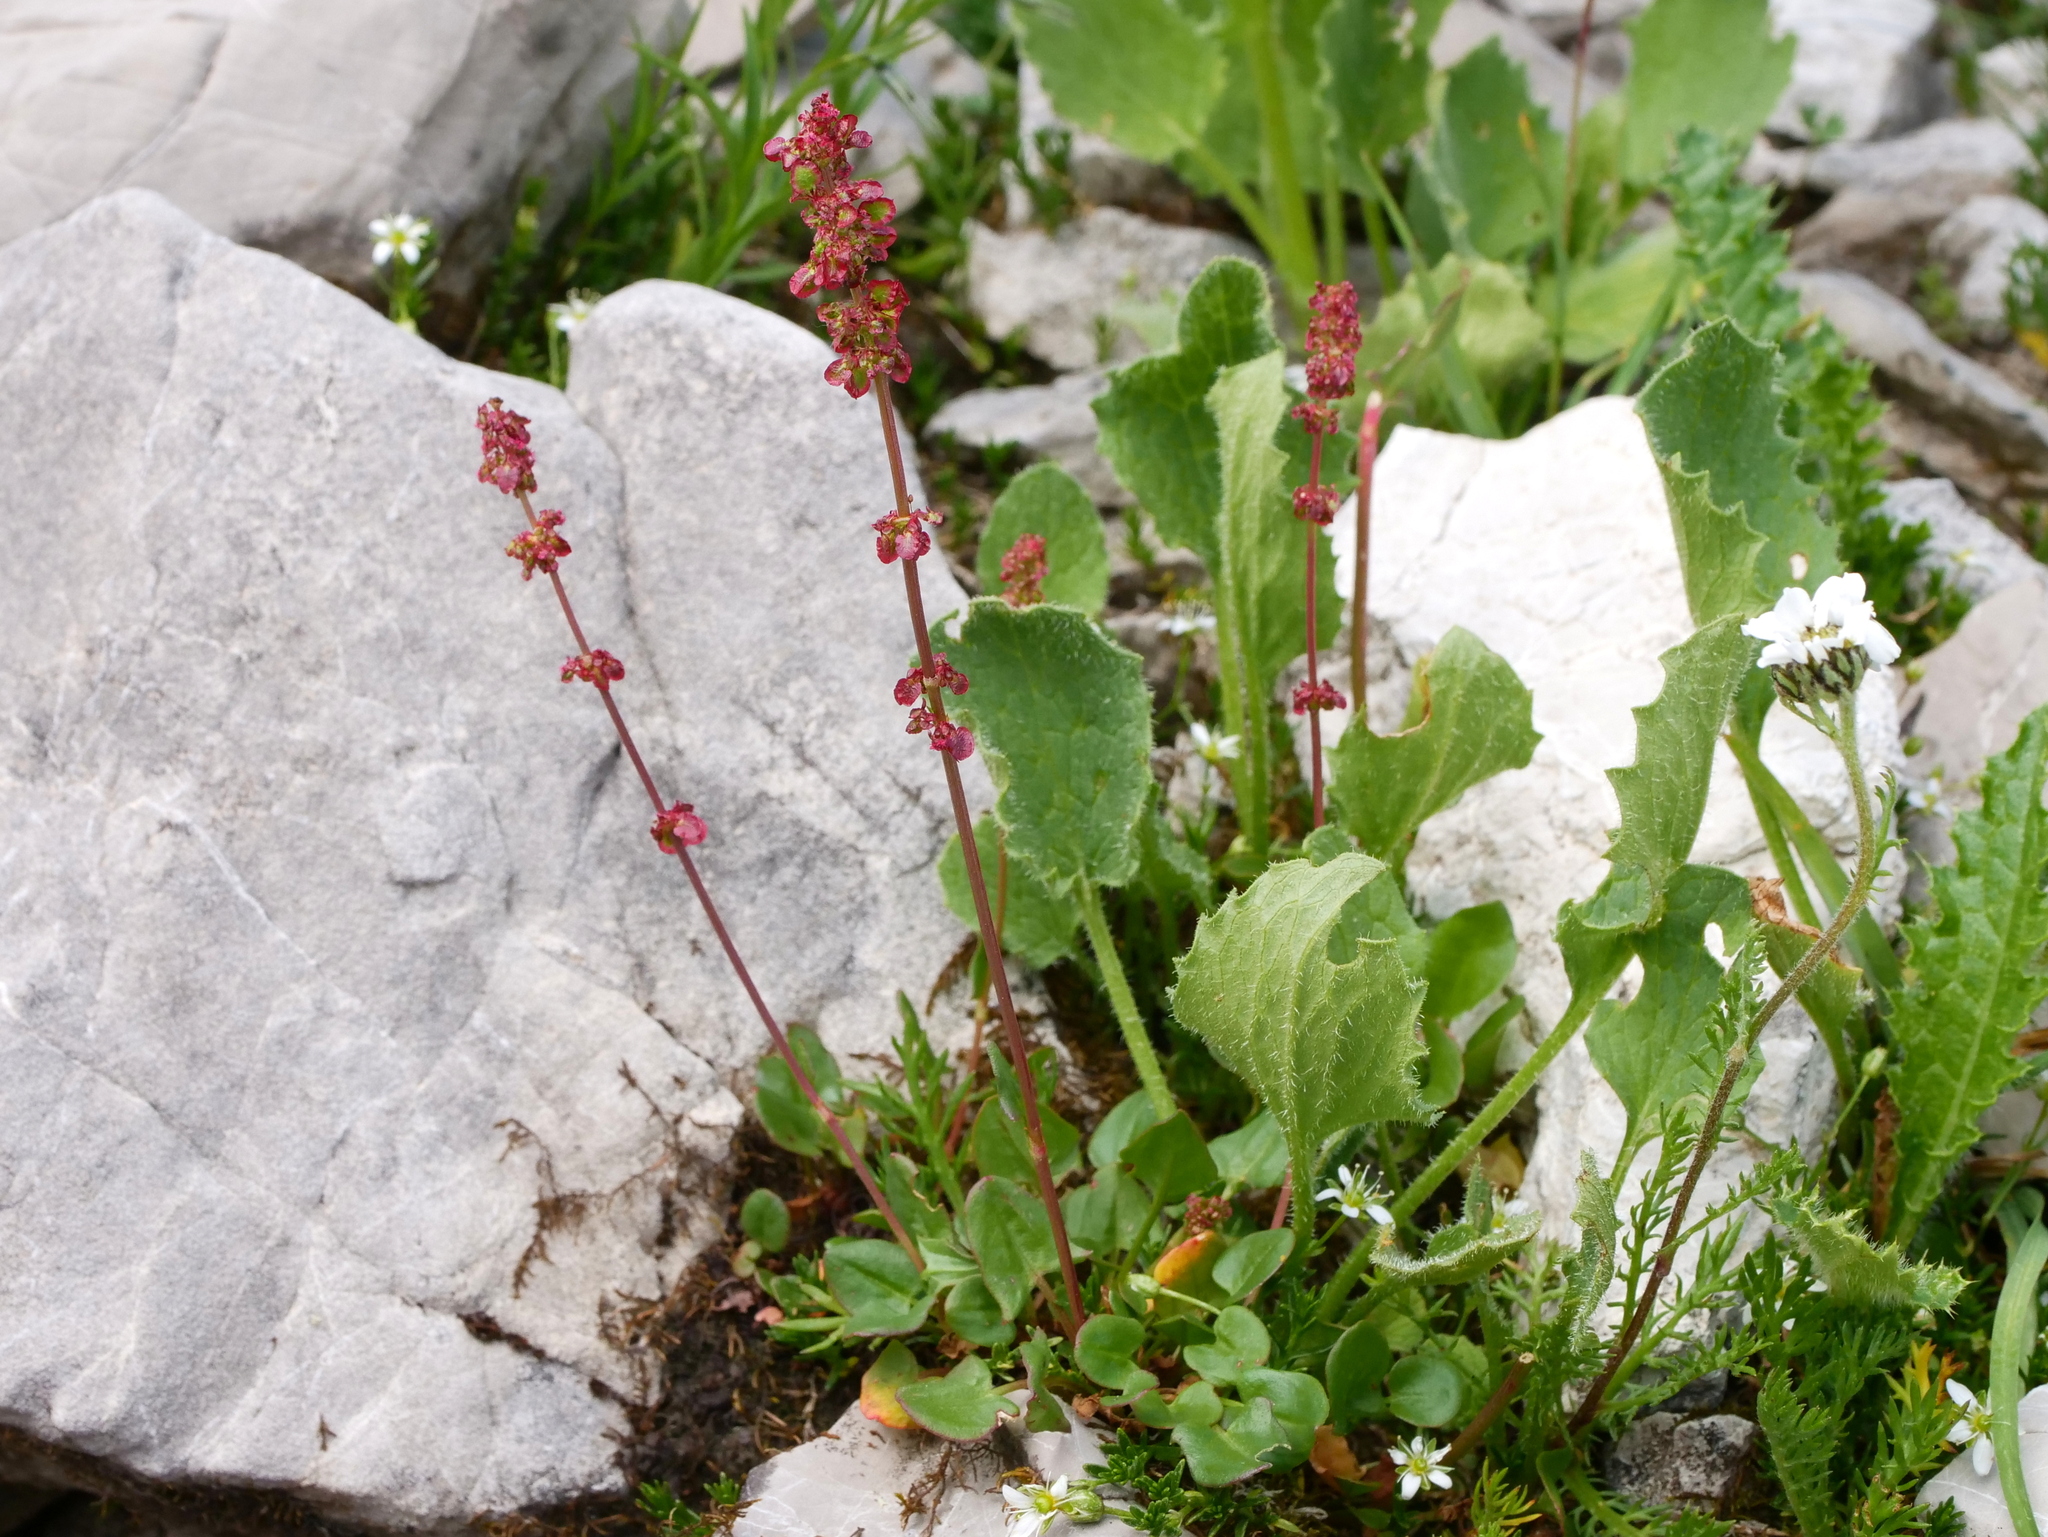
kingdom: Plantae
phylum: Tracheophyta
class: Magnoliopsida
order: Caryophyllales
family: Polygonaceae
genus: Rumex
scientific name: Rumex nivalis
